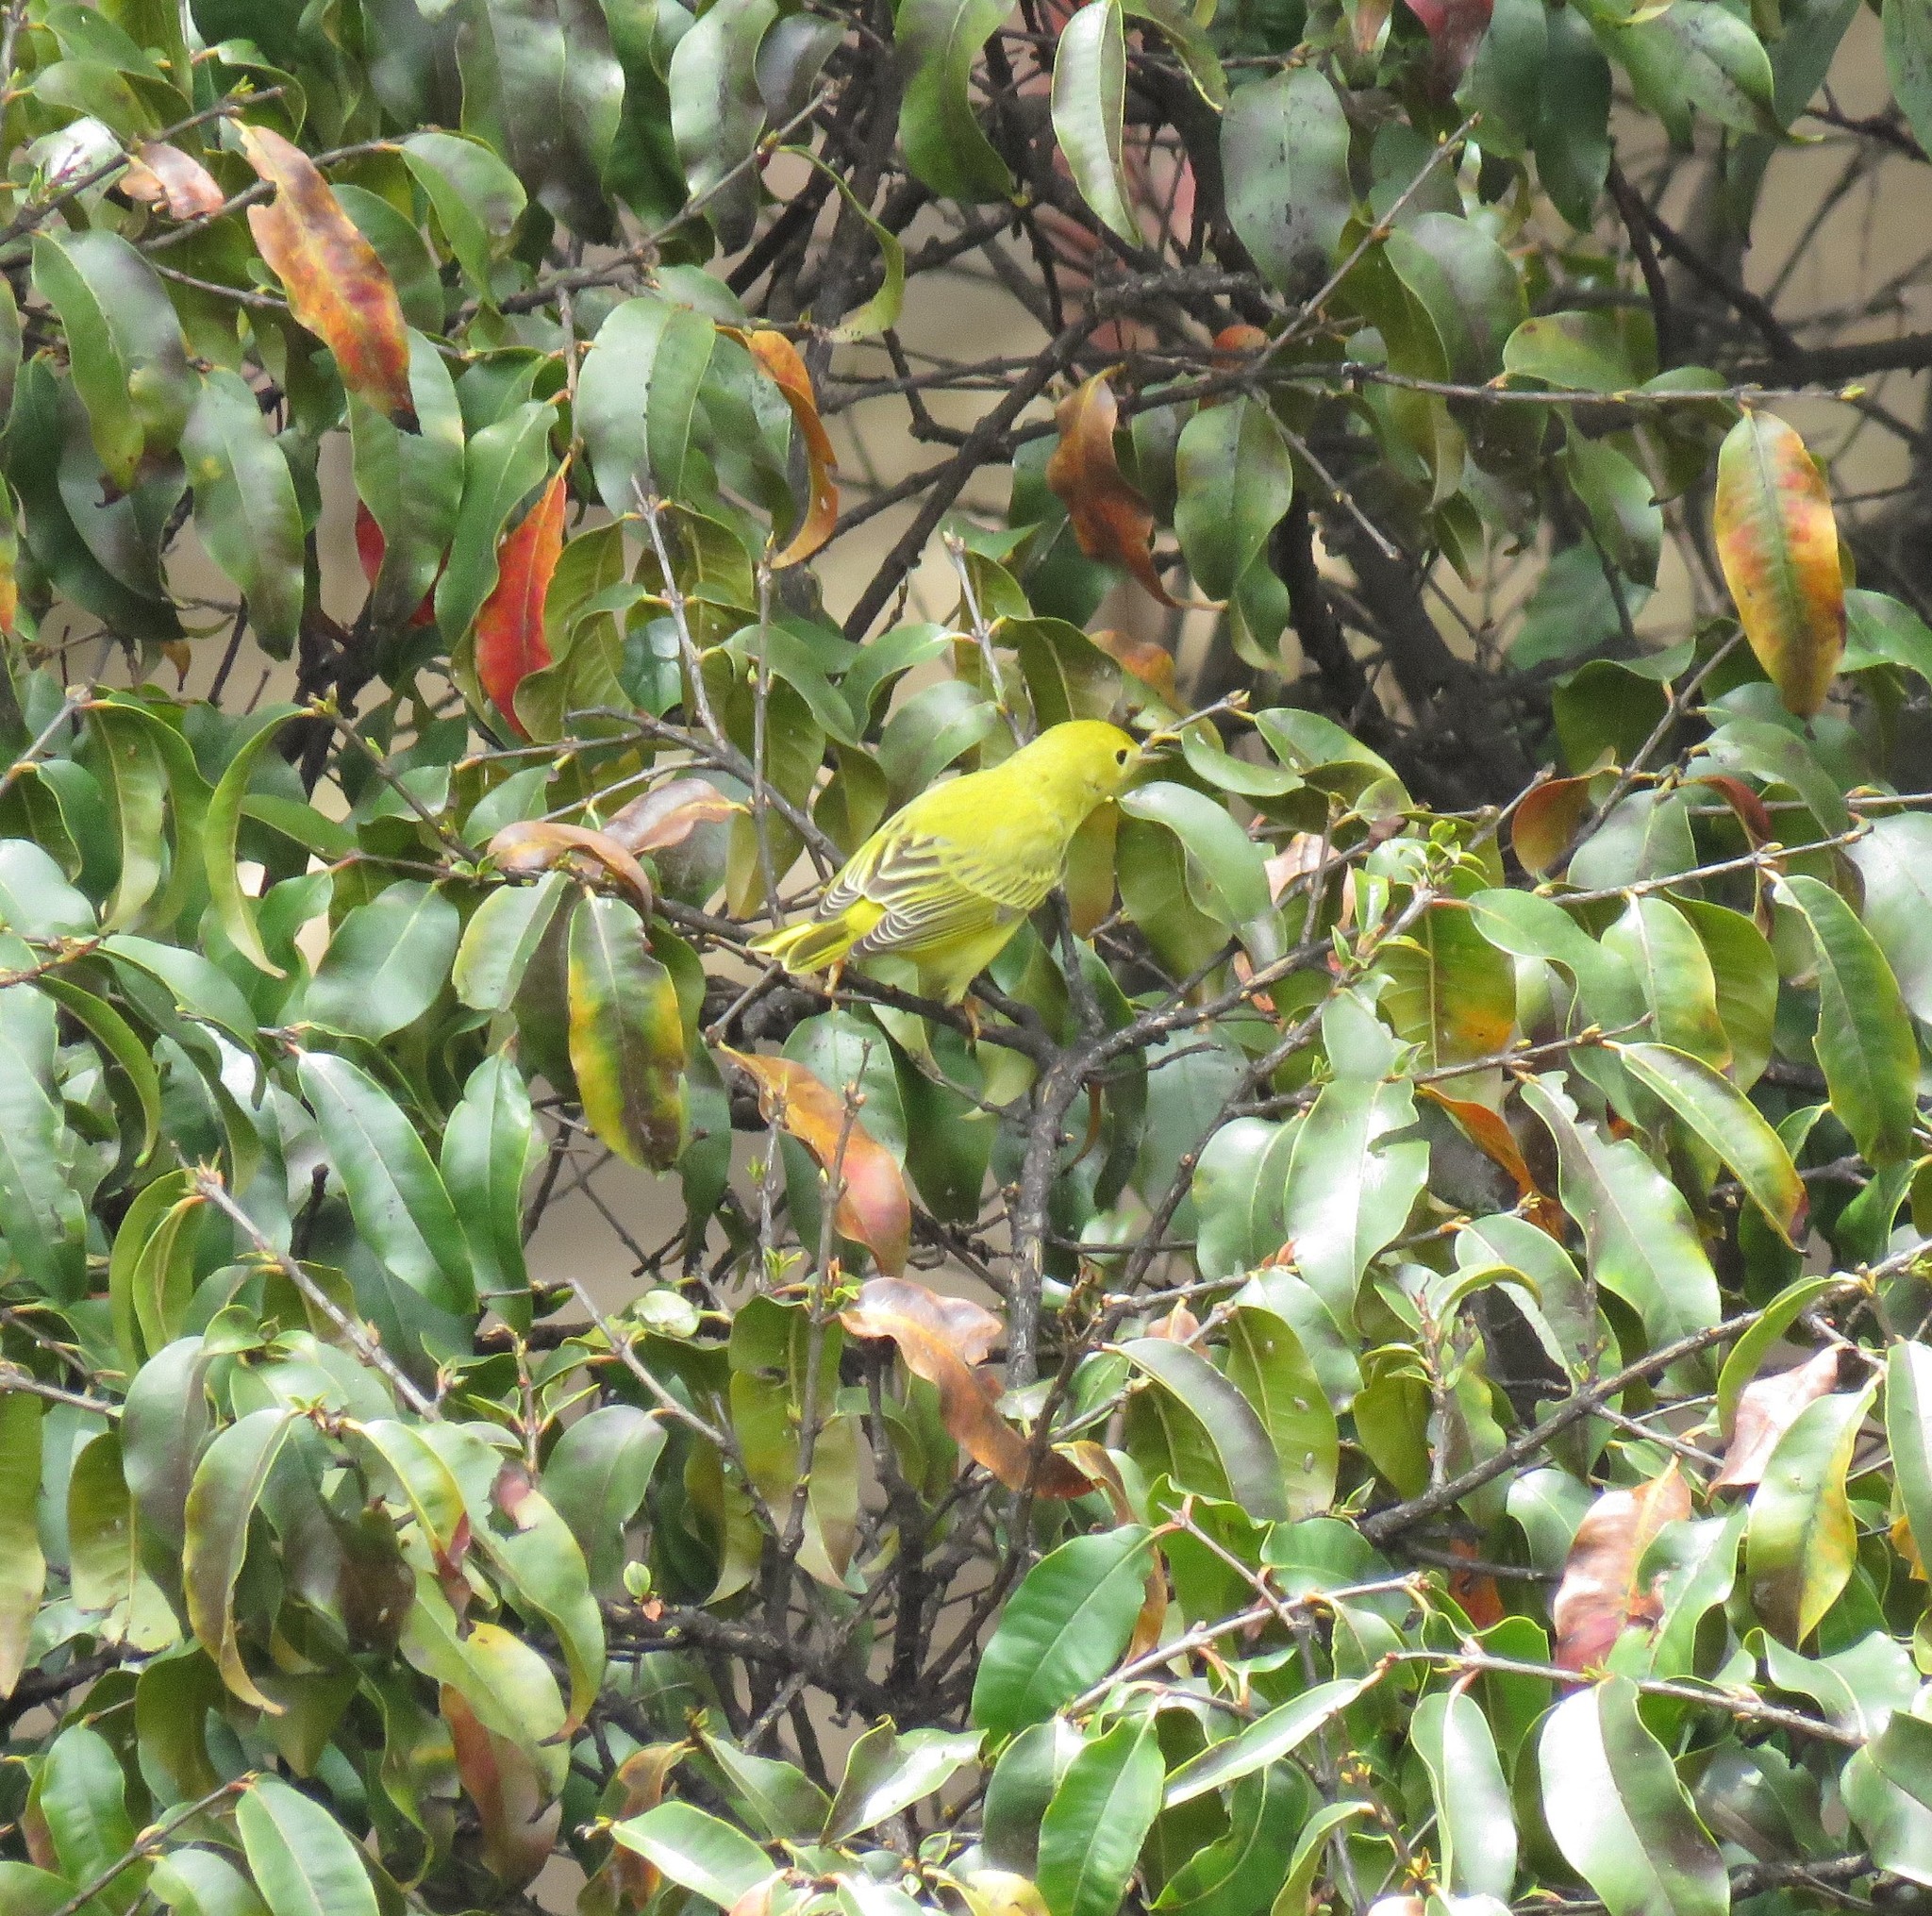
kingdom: Animalia
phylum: Chordata
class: Aves
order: Passeriformes
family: Parulidae
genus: Setophaga
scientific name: Setophaga petechia
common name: Yellow warbler
